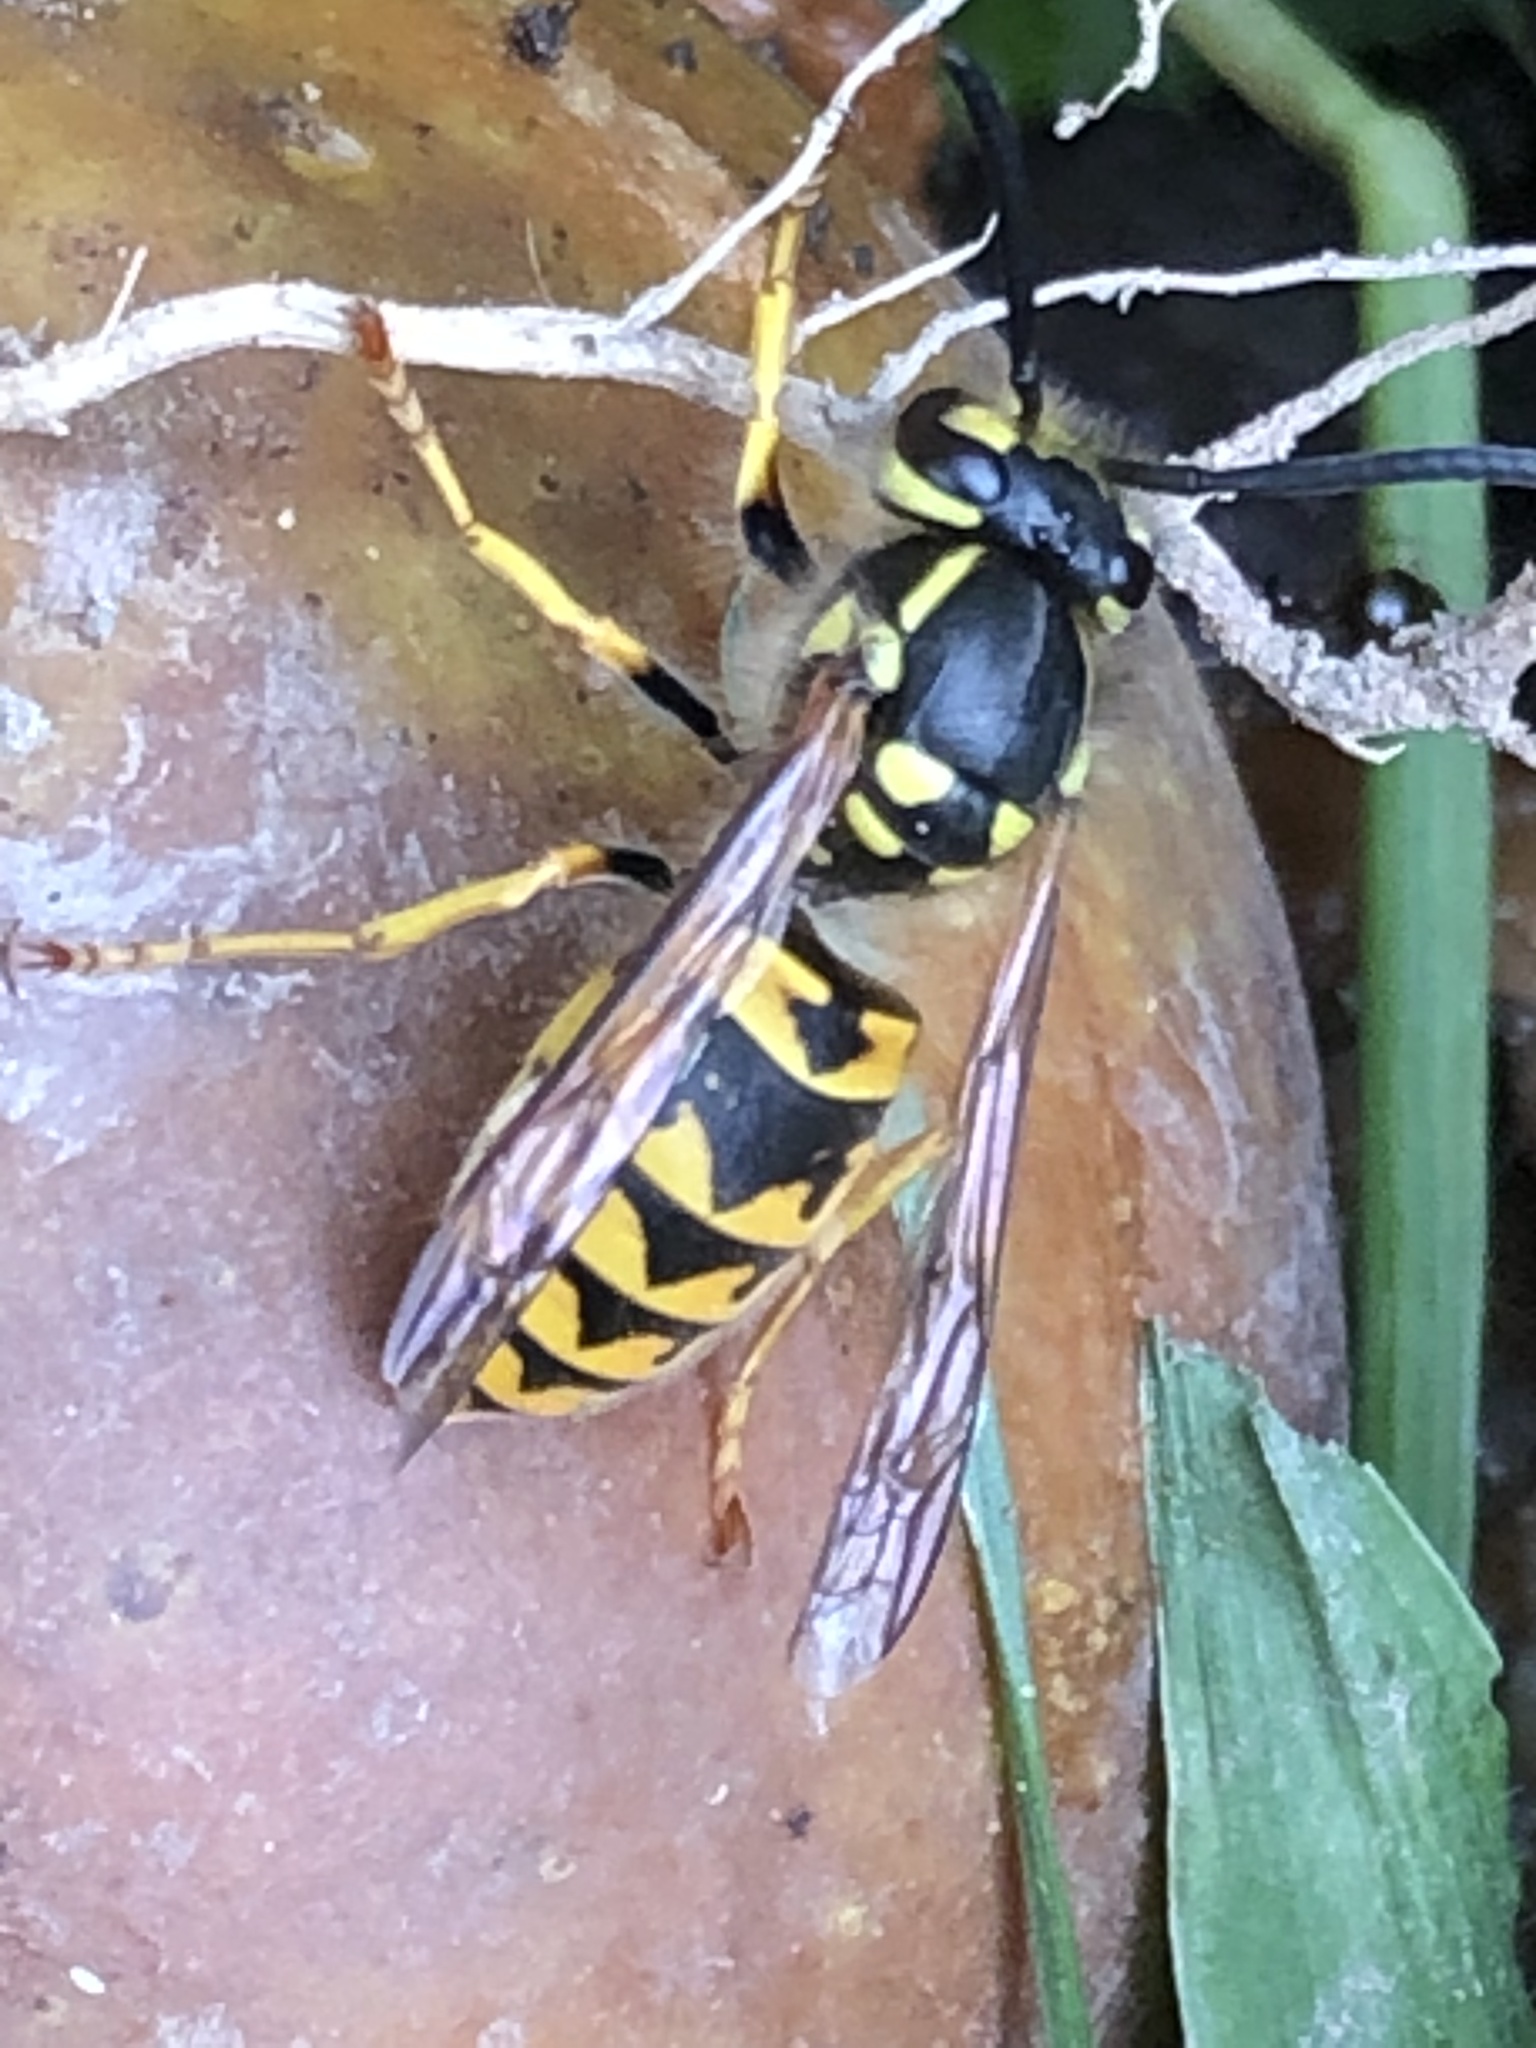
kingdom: Animalia
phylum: Arthropoda
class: Insecta
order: Hymenoptera
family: Vespidae
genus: Vespula
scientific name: Vespula germanica
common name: German wasp
